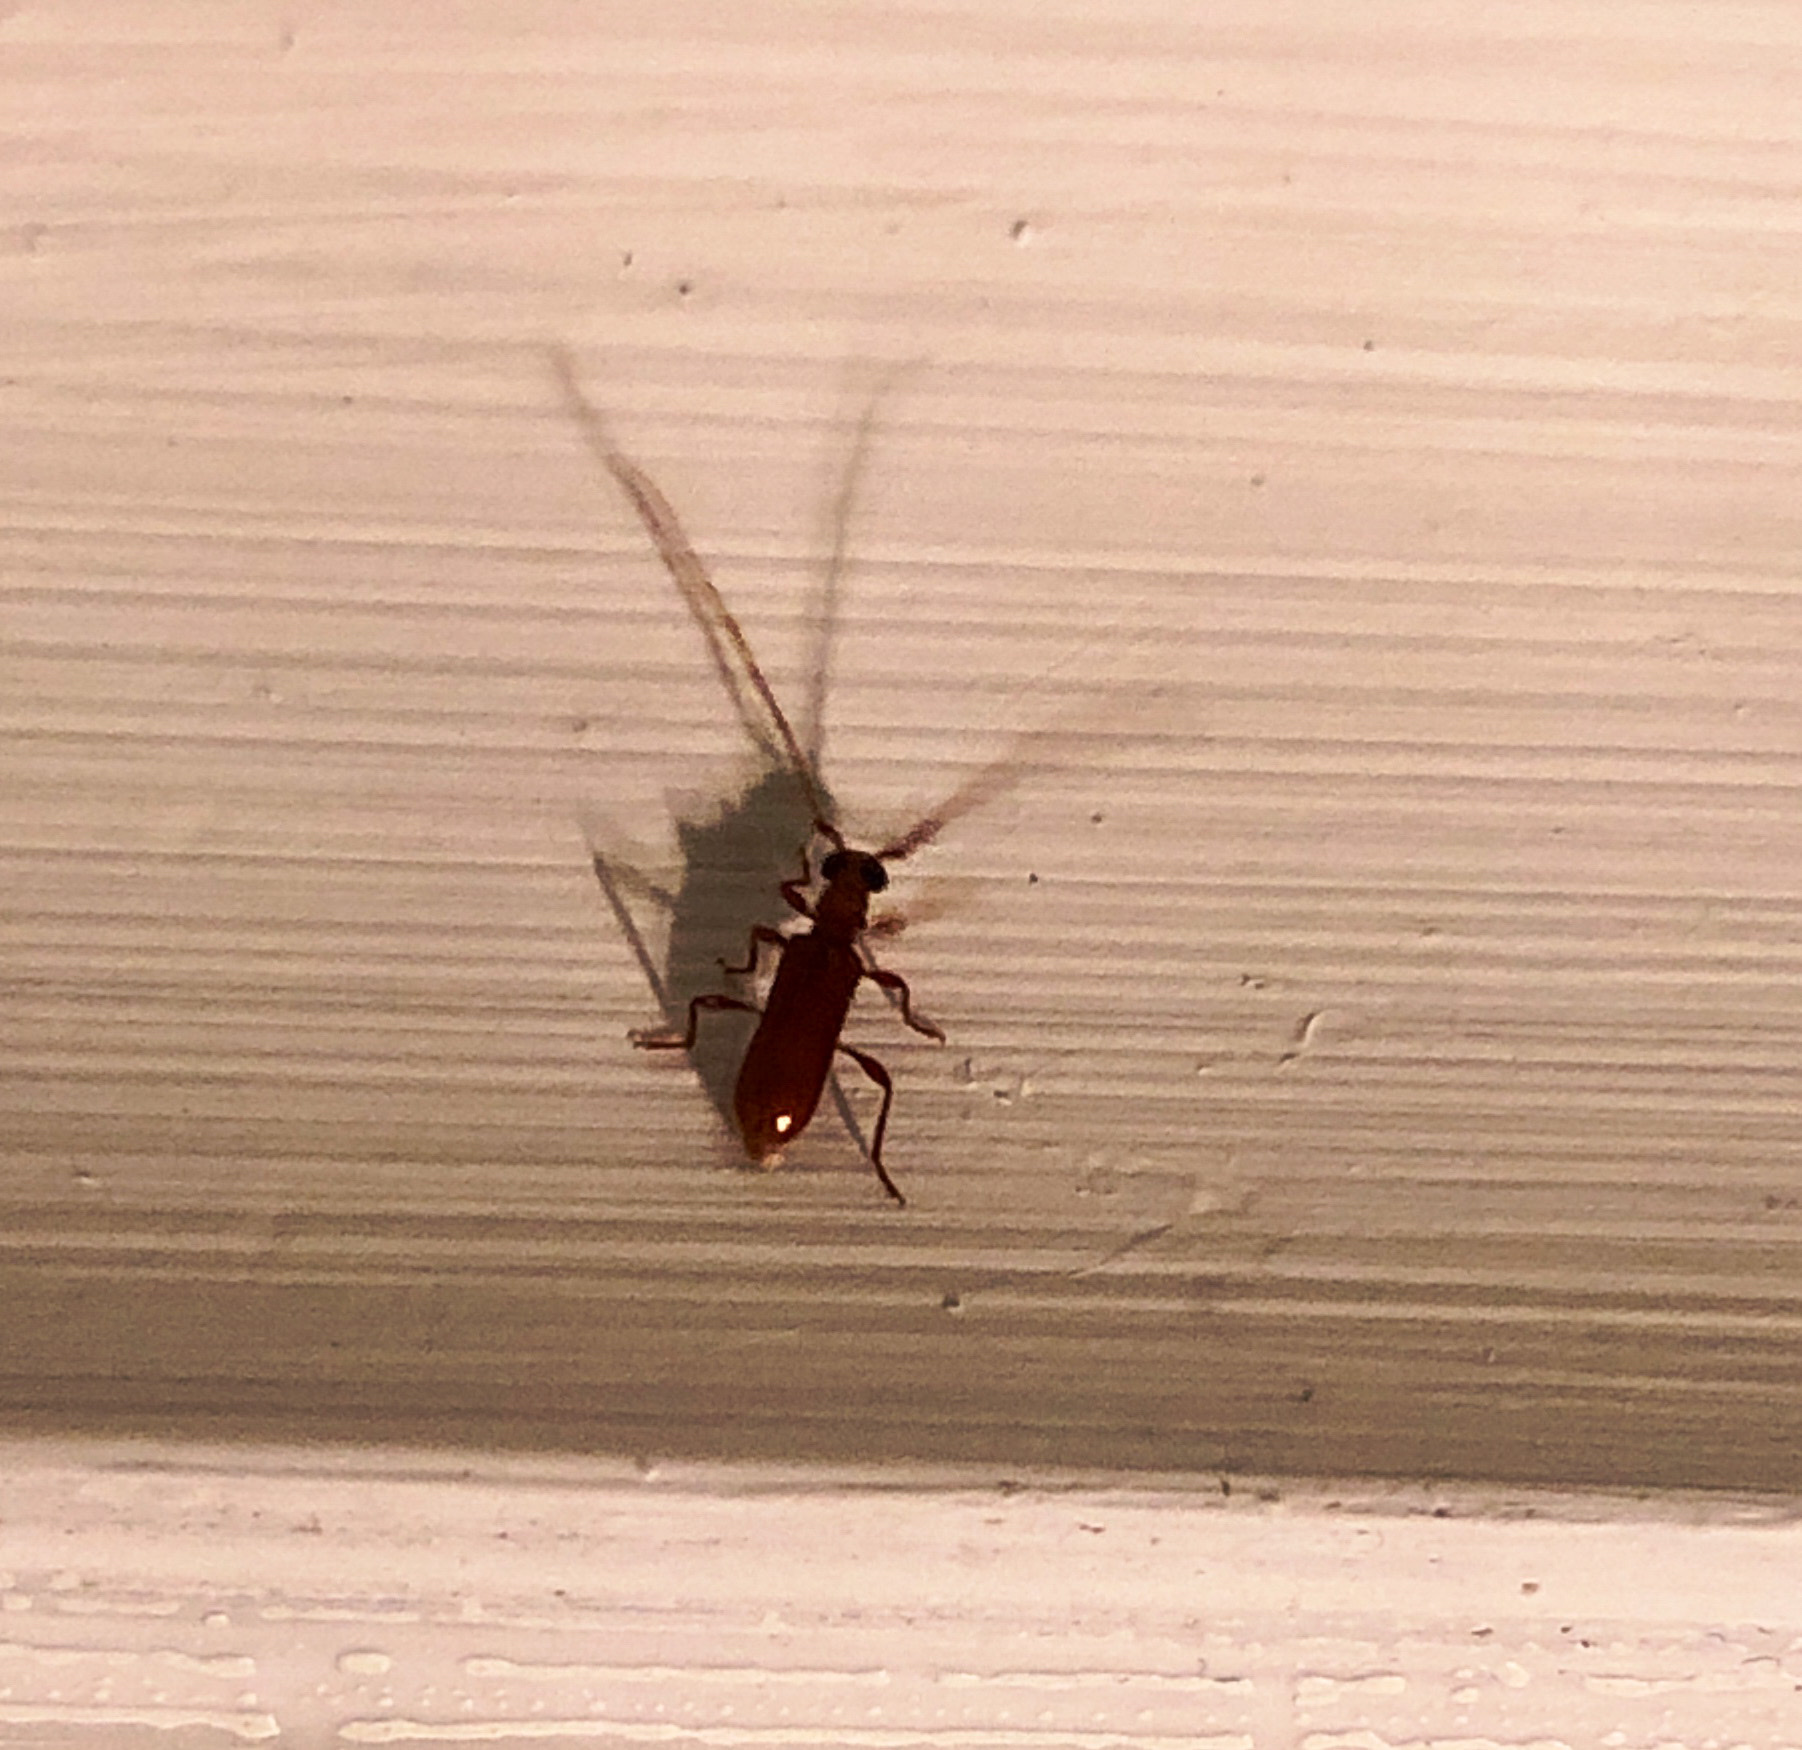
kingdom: Animalia
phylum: Arthropoda
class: Insecta
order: Coleoptera
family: Cerambycidae
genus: Obrium
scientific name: Obrium rufulum
